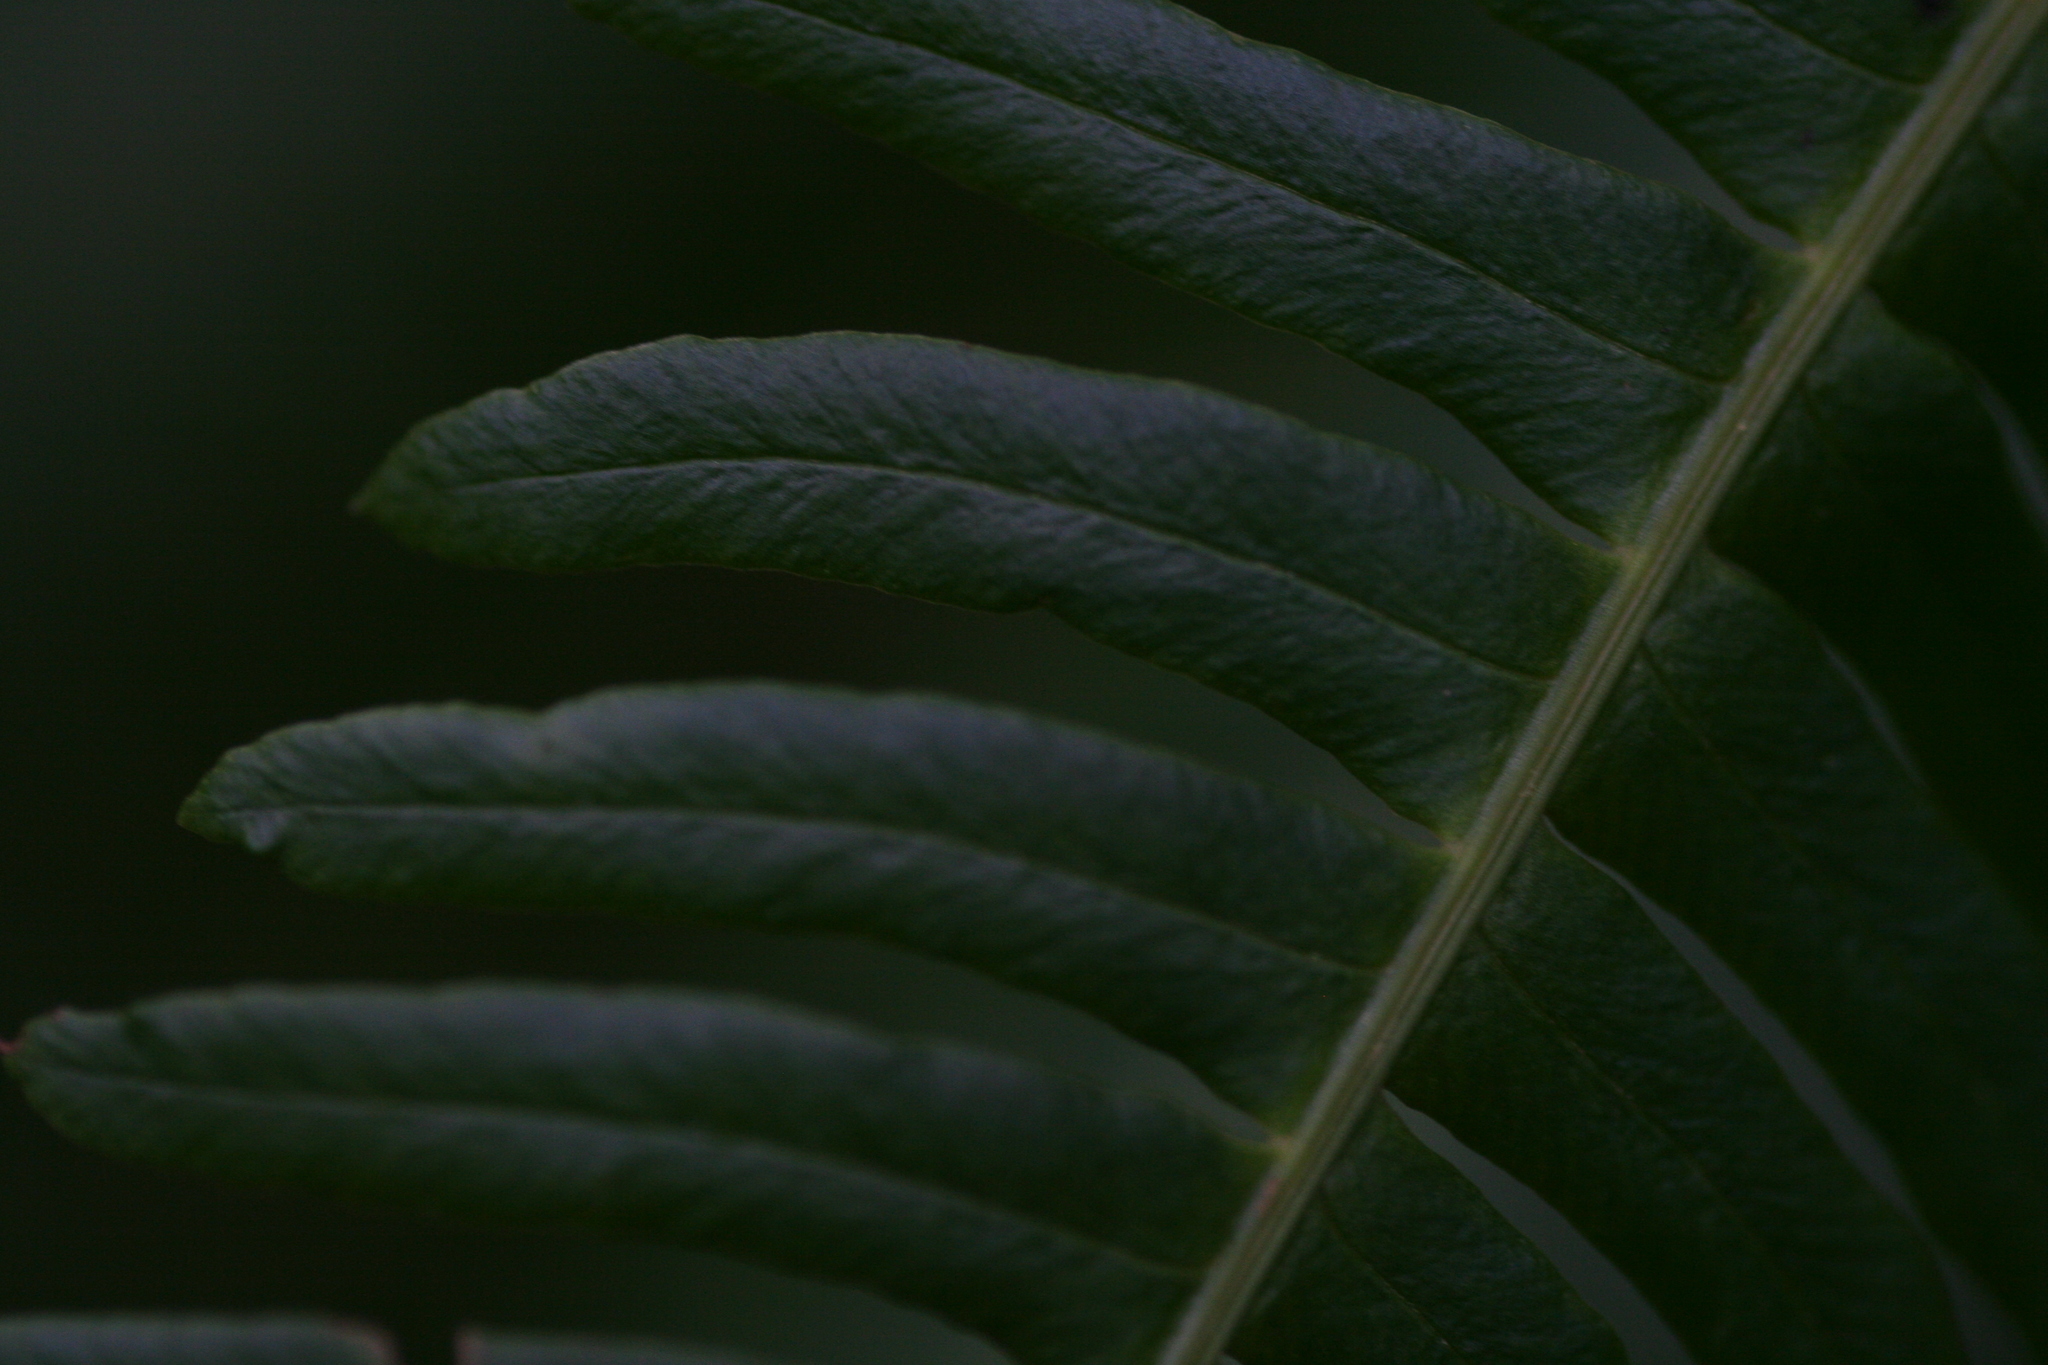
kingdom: Plantae
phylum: Tracheophyta
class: Polypodiopsida
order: Polypodiales
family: Blechnaceae
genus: Struthiopteris
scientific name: Struthiopteris spicant
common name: Deer fern
